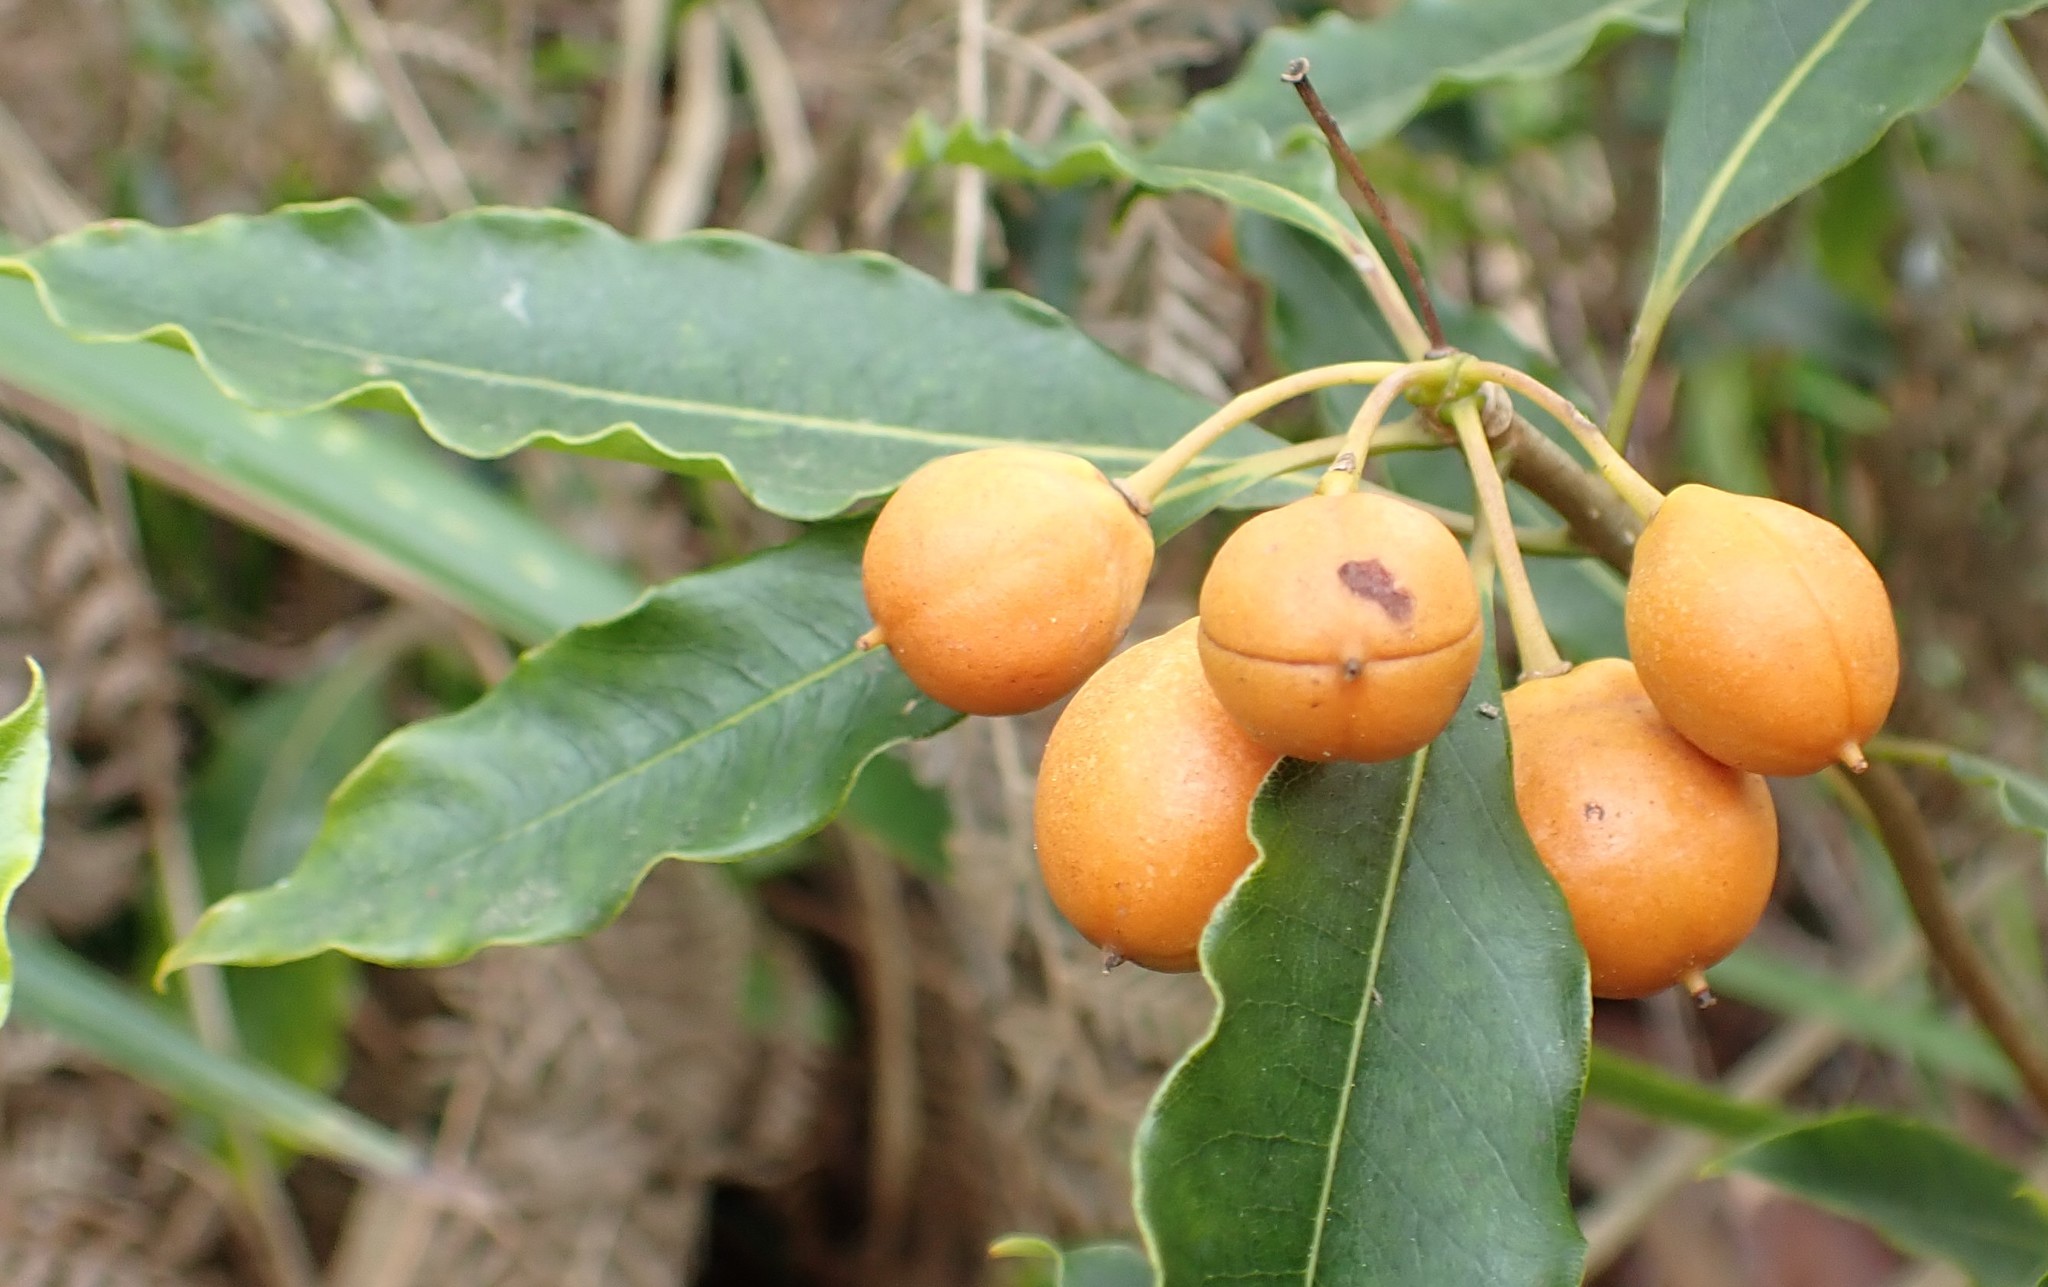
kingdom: Plantae
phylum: Tracheophyta
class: Magnoliopsida
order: Apiales
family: Pittosporaceae
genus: Pittosporum
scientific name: Pittosporum undulatum
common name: Australian cheesewood
